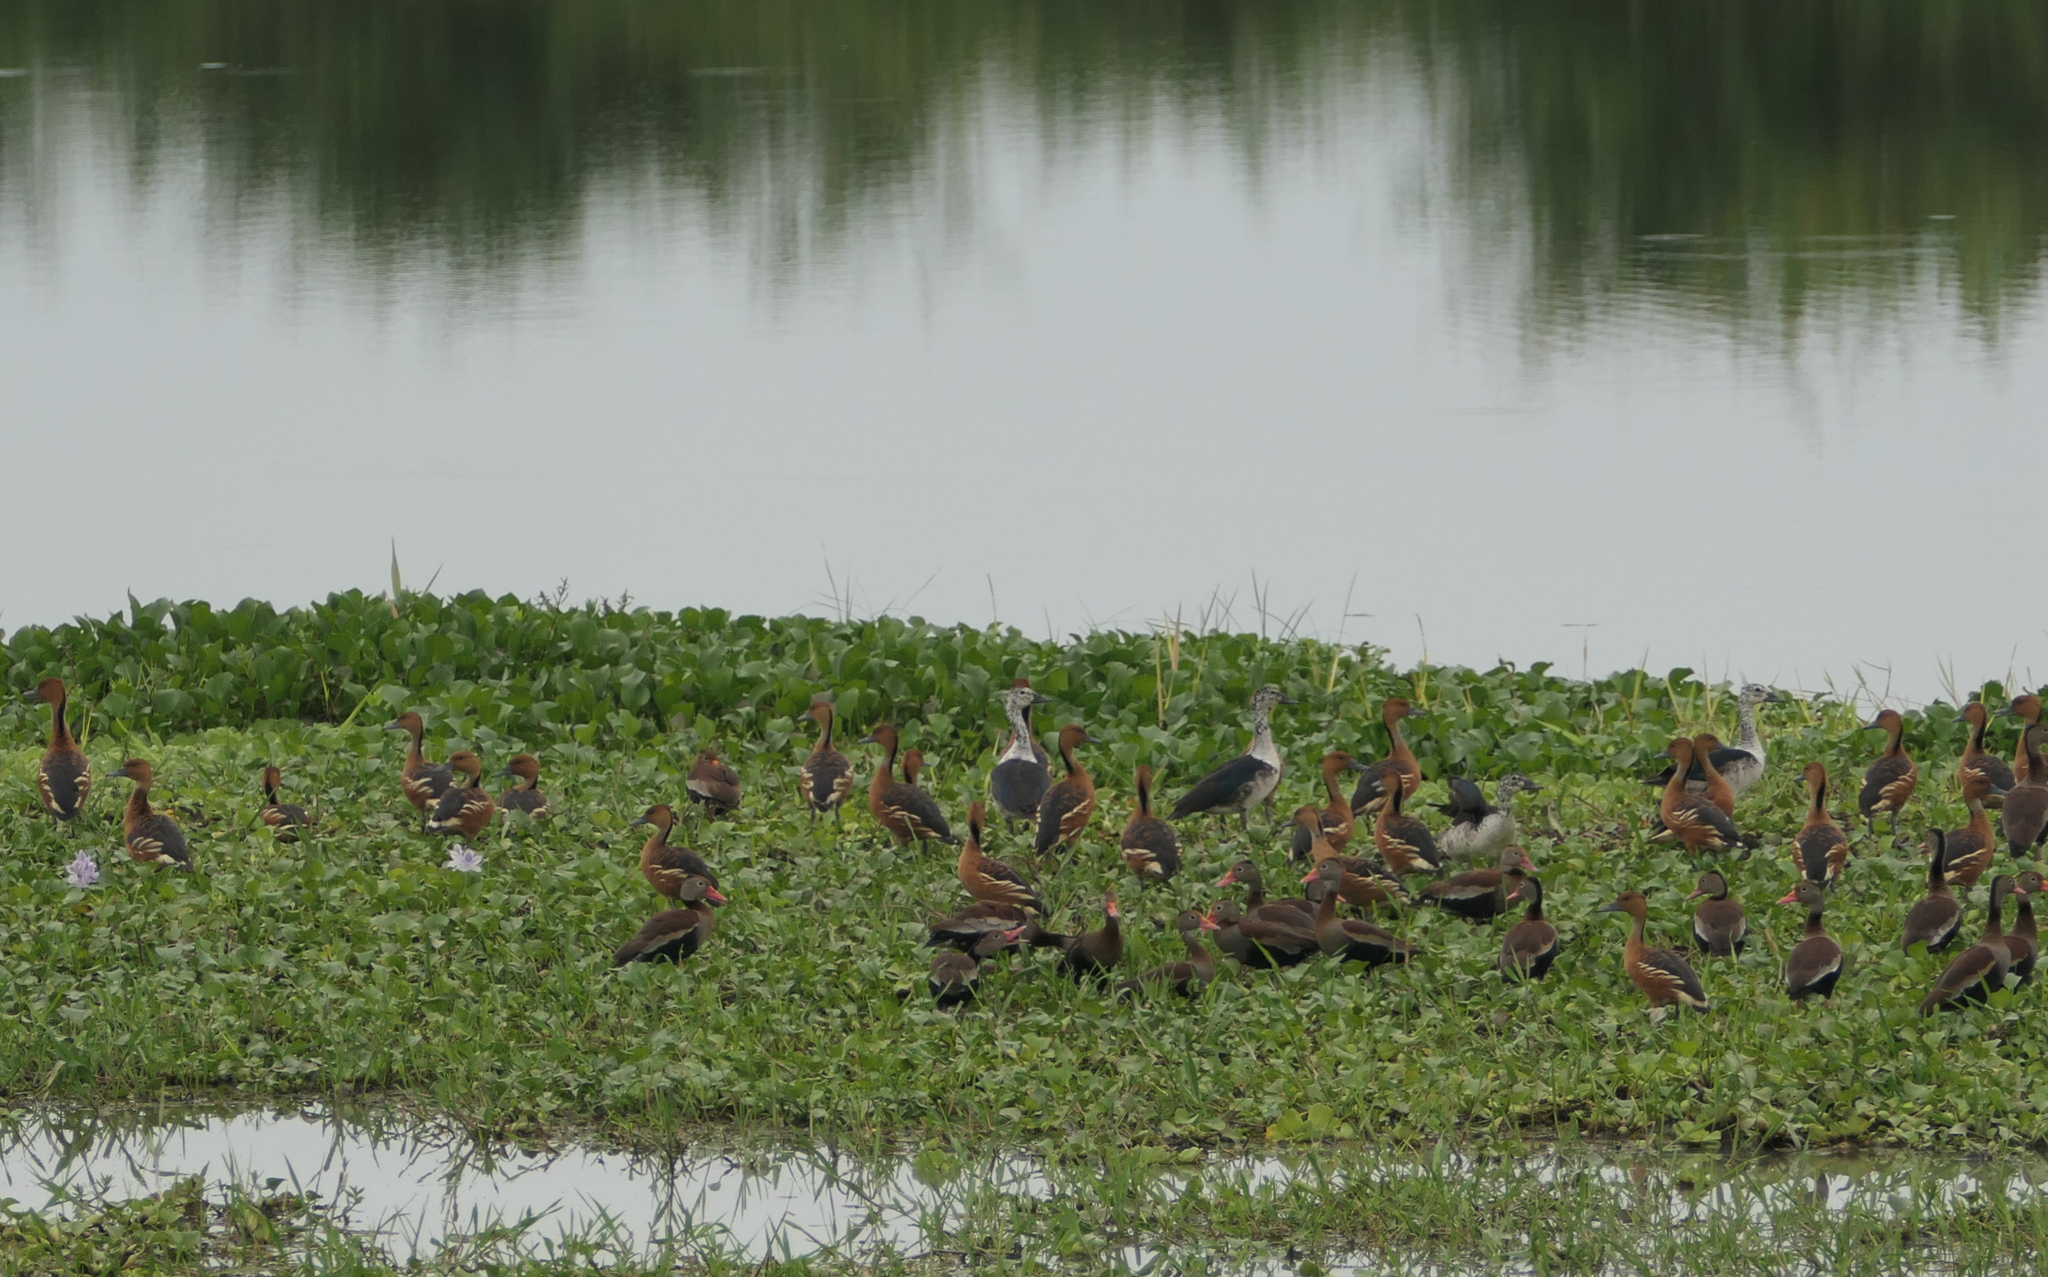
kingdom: Animalia
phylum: Chordata
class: Aves
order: Anseriformes
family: Anatidae
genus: Sarkidiornis
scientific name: Sarkidiornis sylvicola
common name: Comb duck
